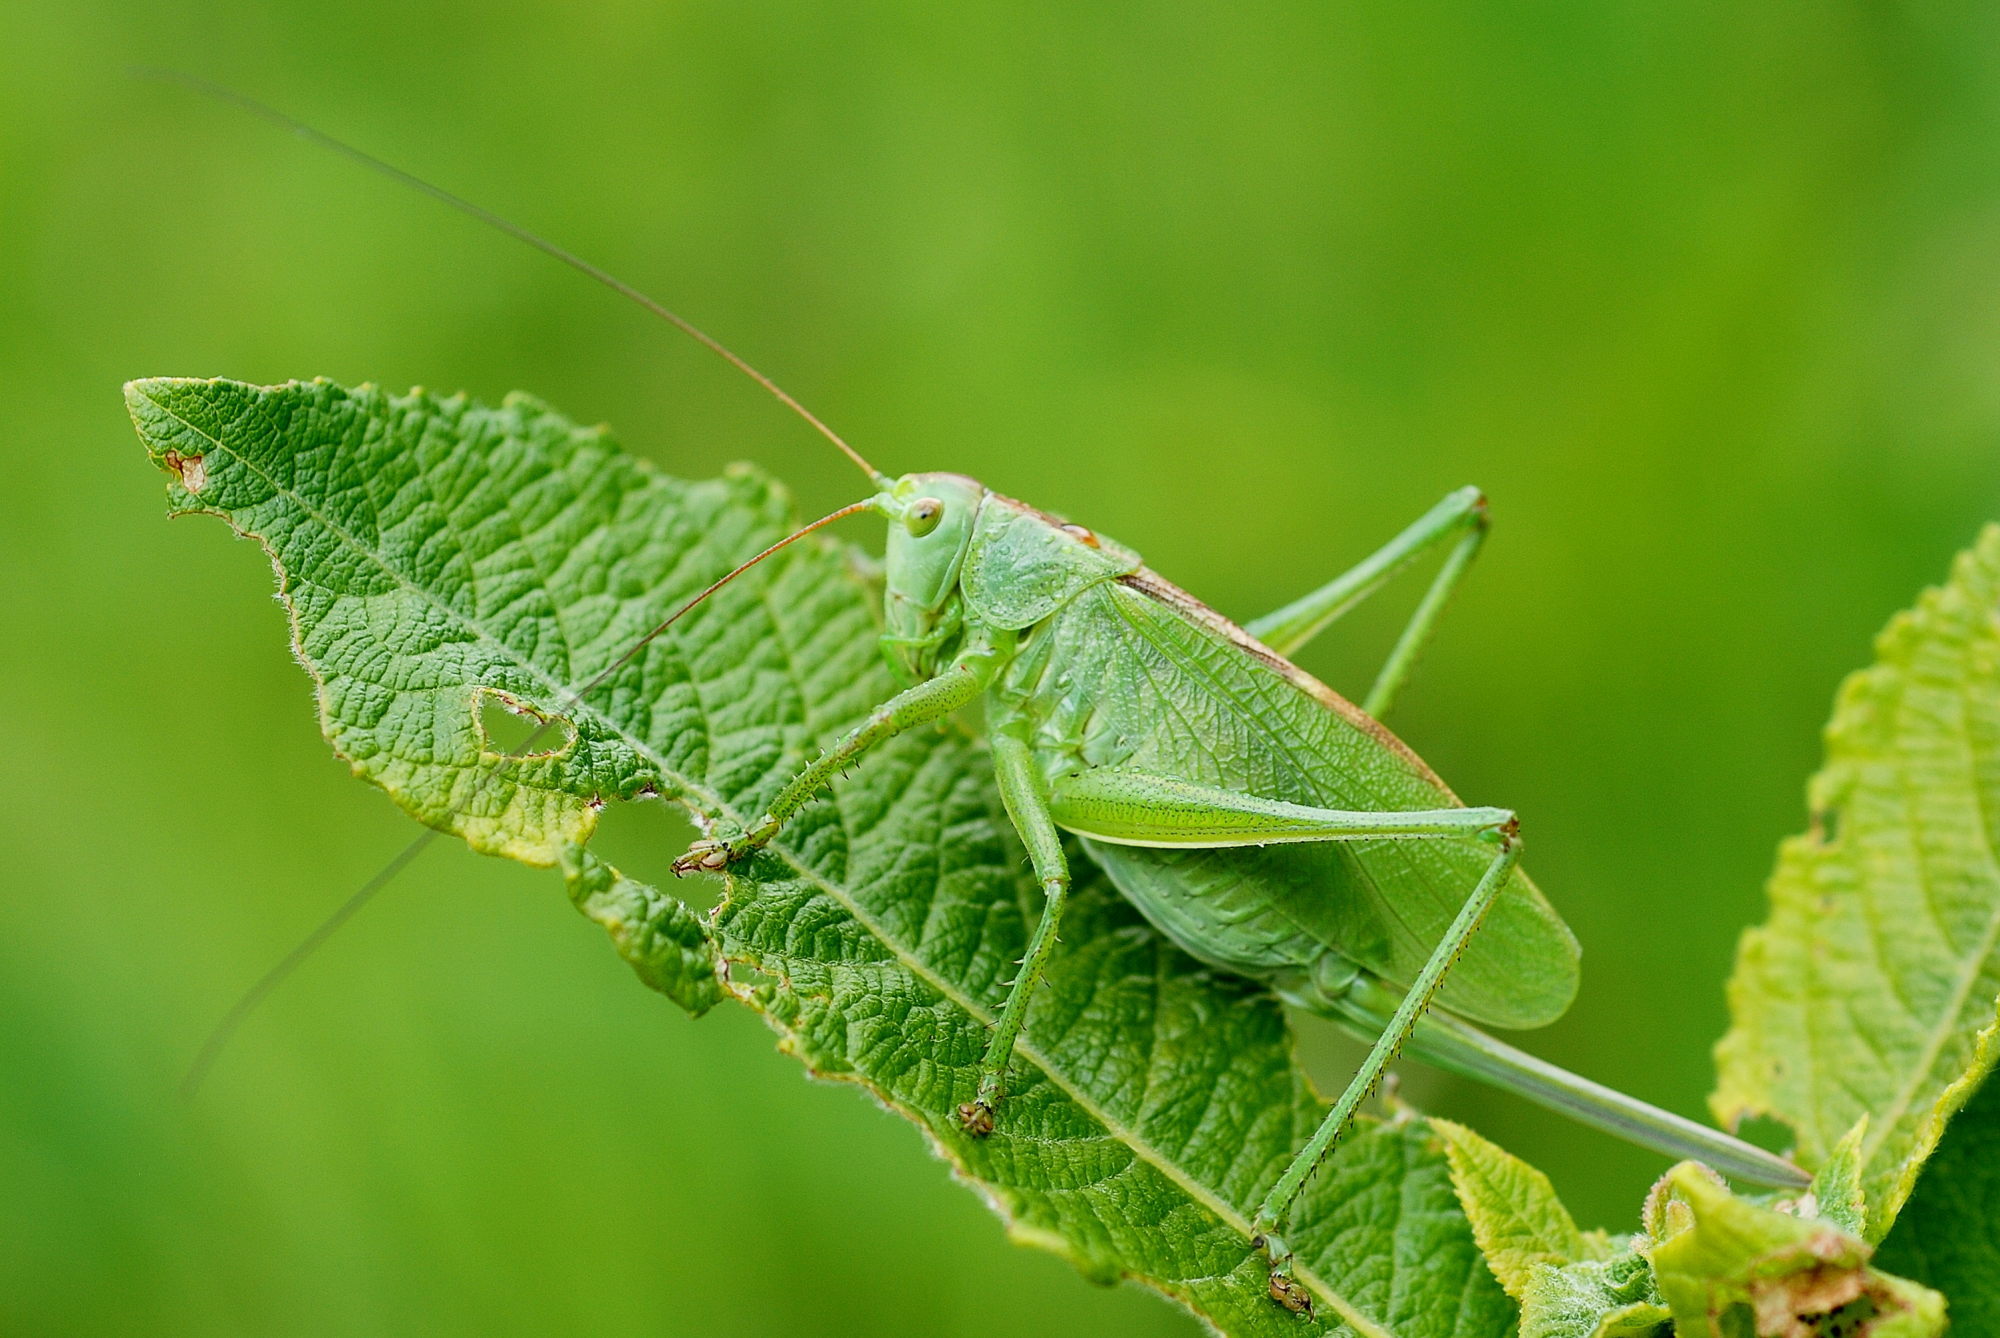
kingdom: Animalia
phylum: Arthropoda
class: Insecta
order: Orthoptera
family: Tettigoniidae
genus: Tettigonia
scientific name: Tettigonia cantans
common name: Upland green bush-cricket
